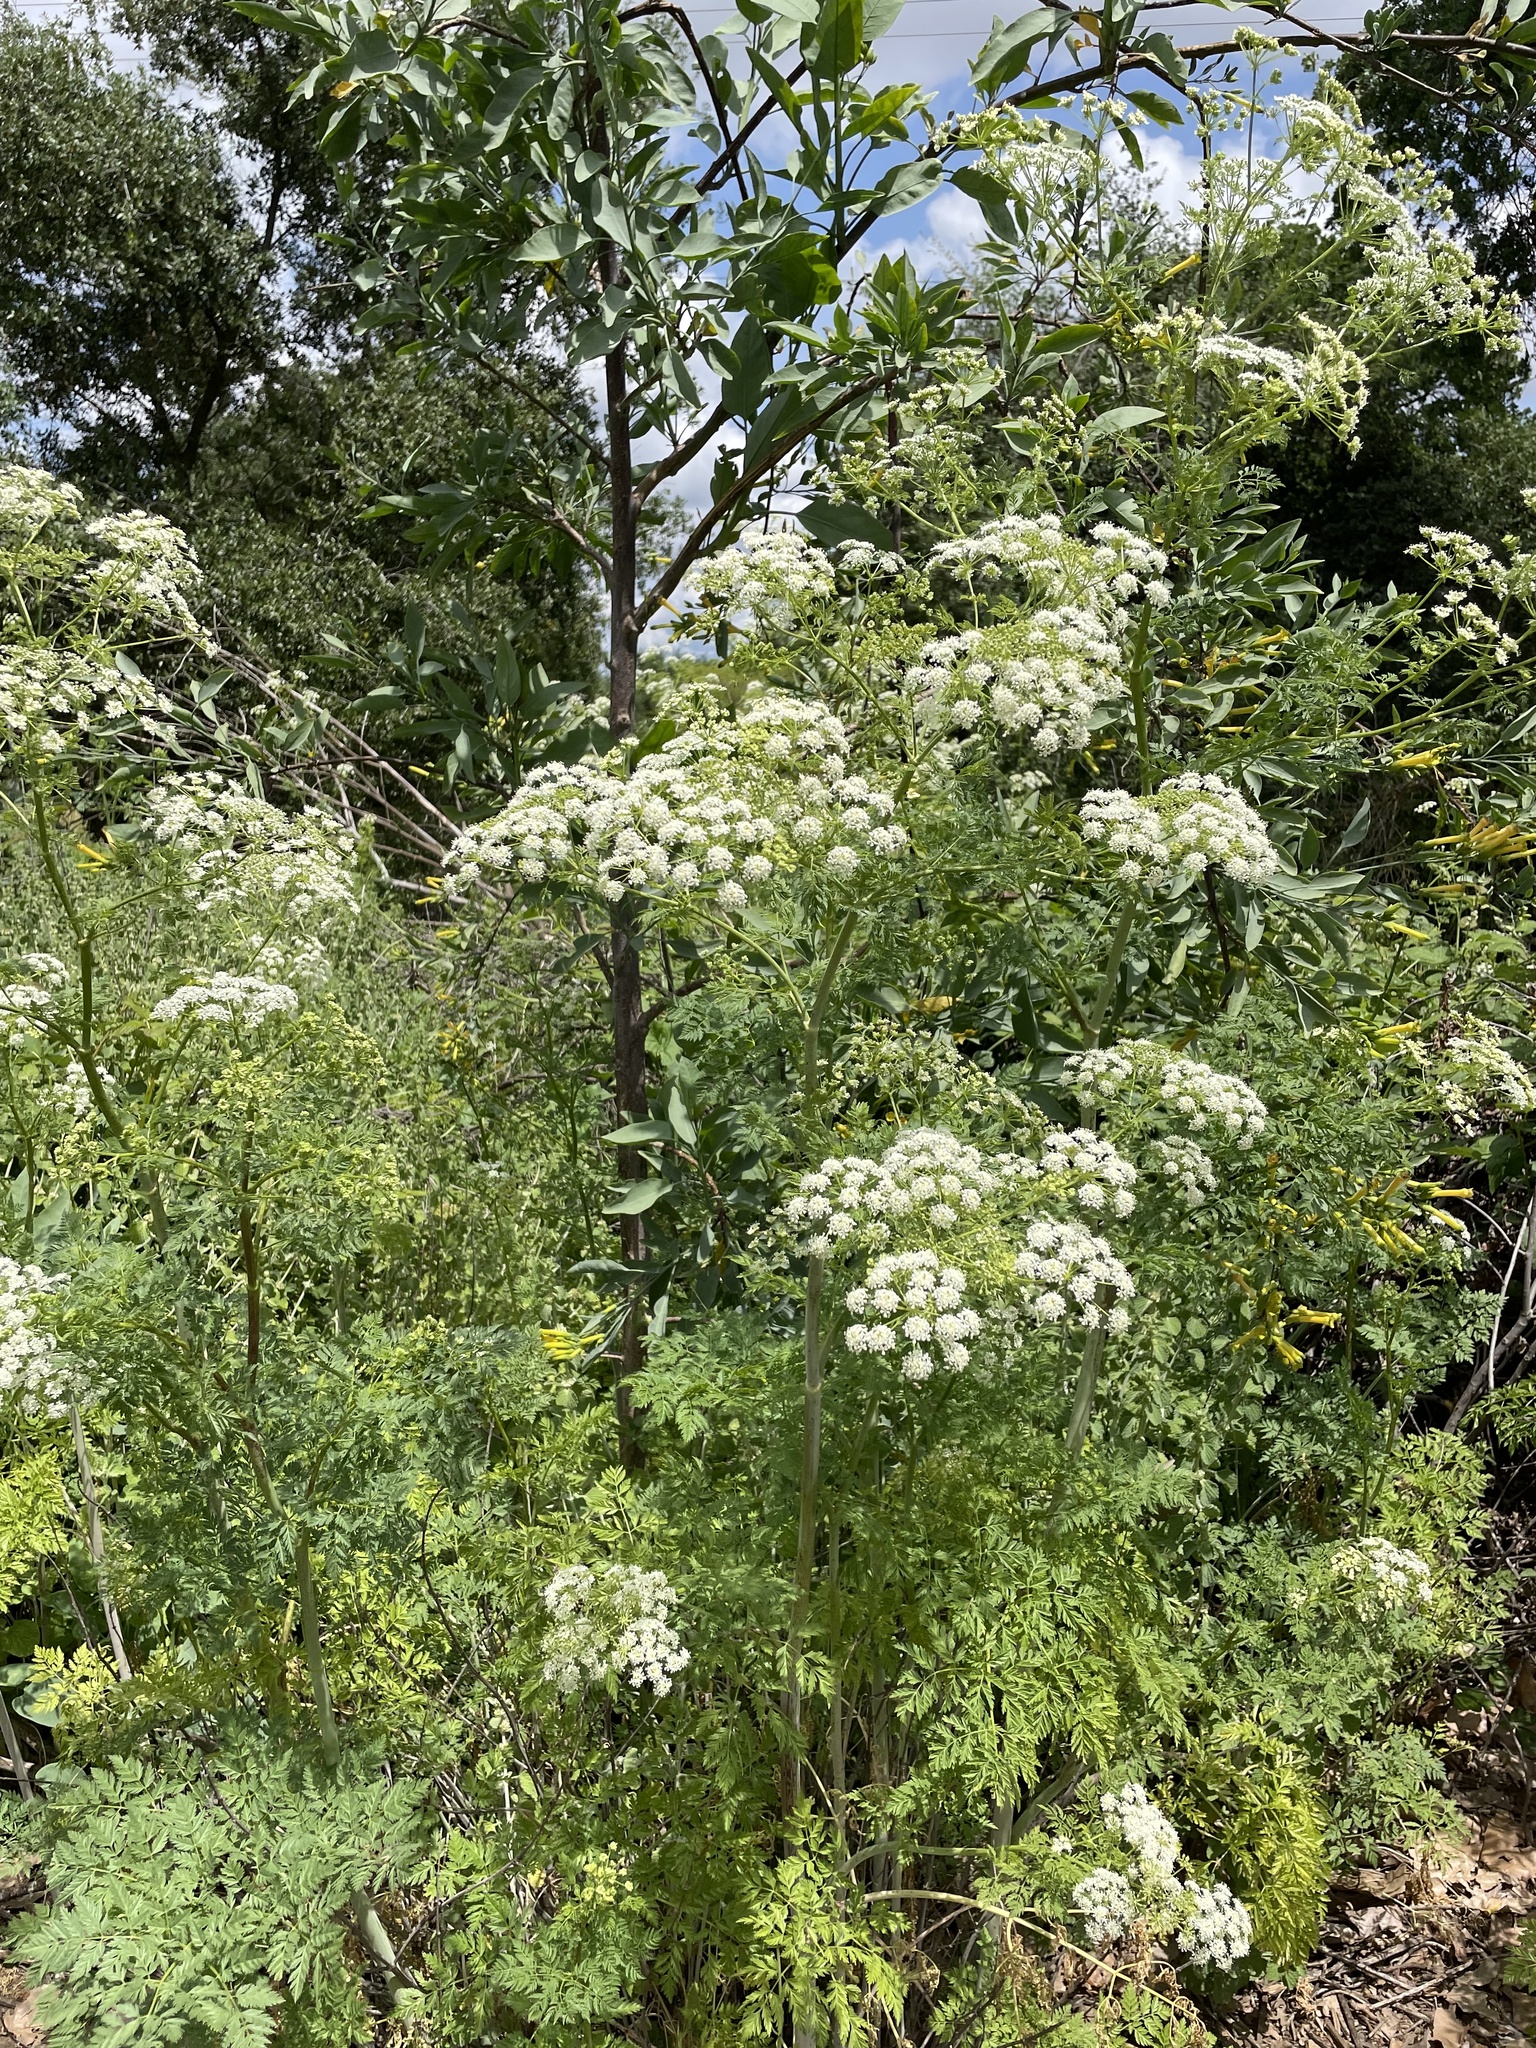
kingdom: Plantae
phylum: Tracheophyta
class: Magnoliopsida
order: Apiales
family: Apiaceae
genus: Conium
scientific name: Conium maculatum
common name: Hemlock
